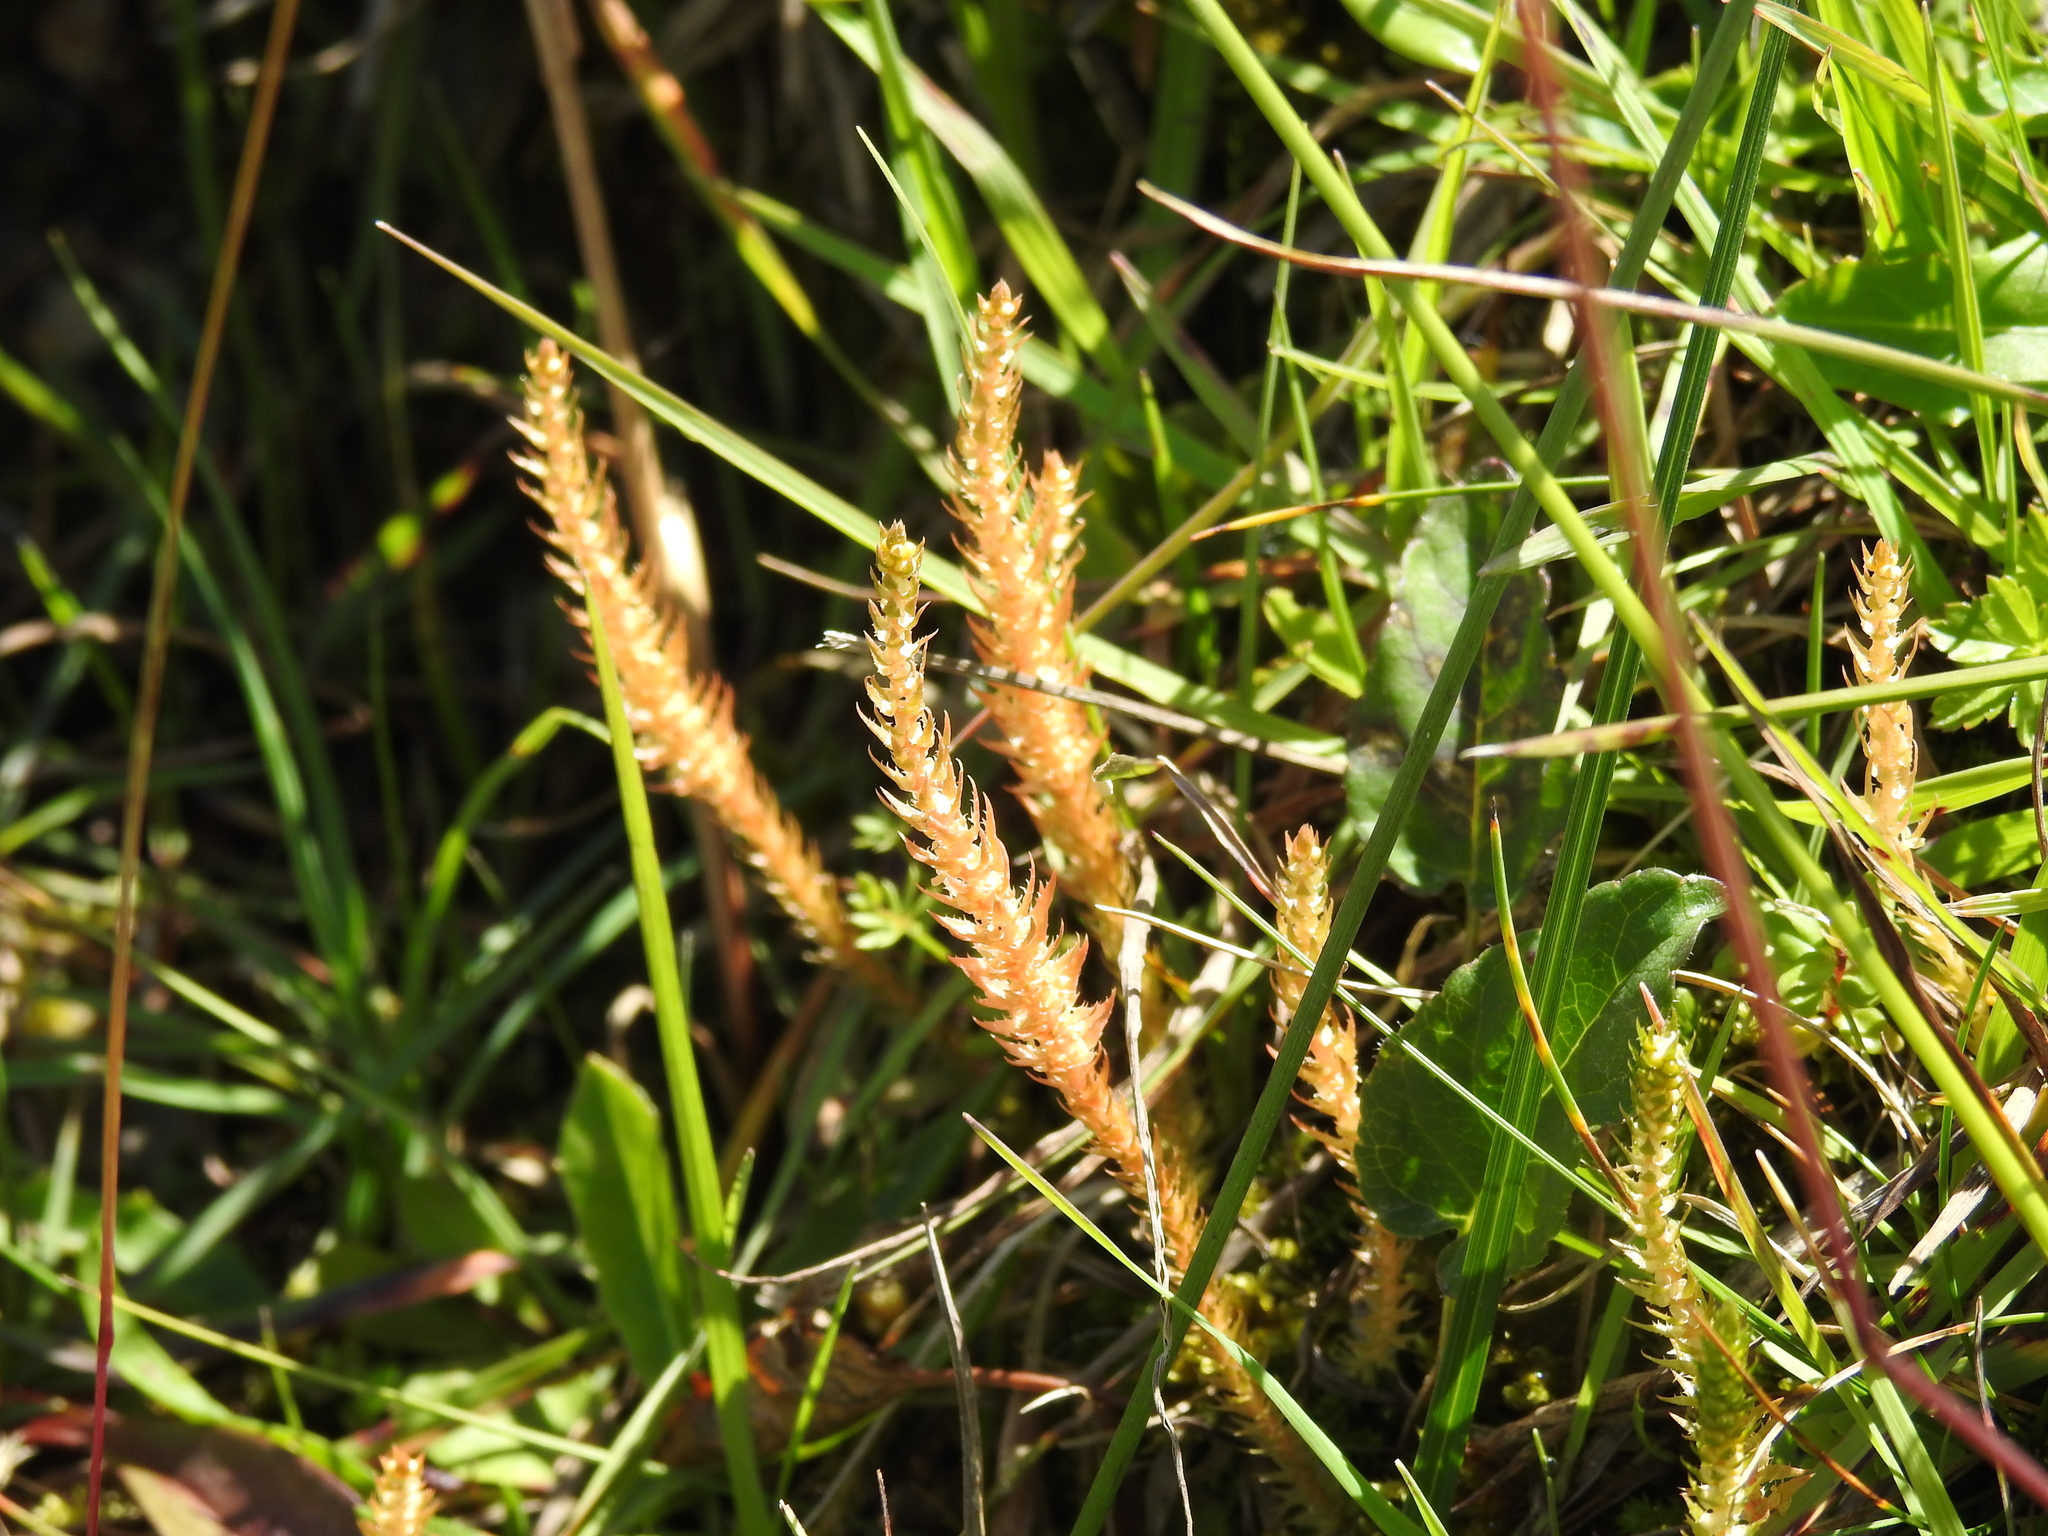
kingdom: Plantae
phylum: Tracheophyta
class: Lycopodiopsida
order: Selaginellales
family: Selaginellaceae
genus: Selaginella
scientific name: Selaginella selaginoides
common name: Prickly mountain-moss
